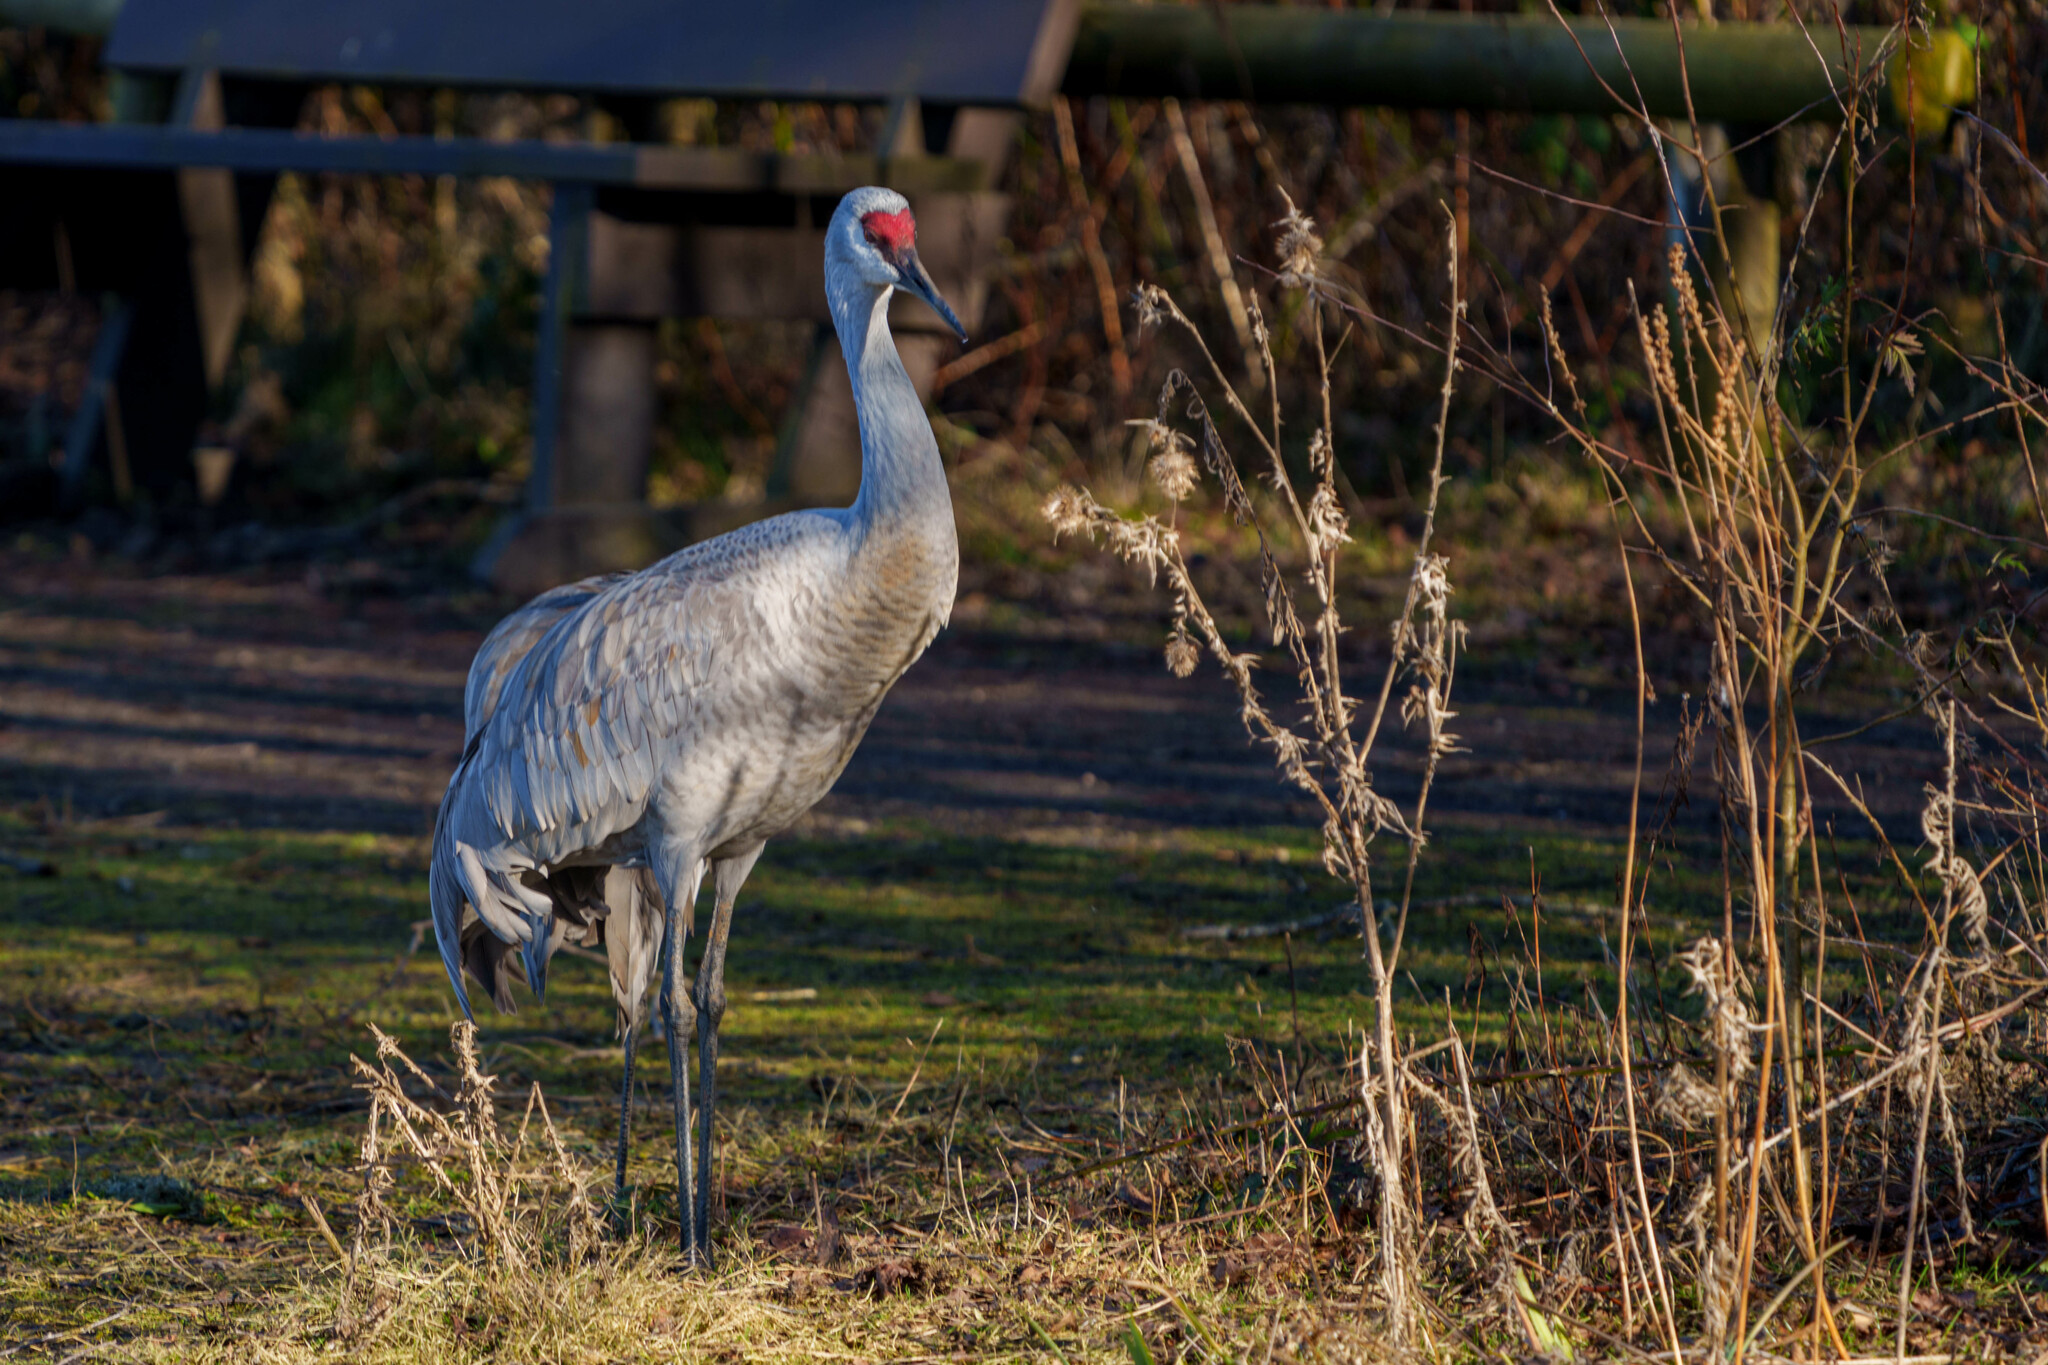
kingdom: Animalia
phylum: Chordata
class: Aves
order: Gruiformes
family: Gruidae
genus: Grus
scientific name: Grus canadensis
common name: Sandhill crane
